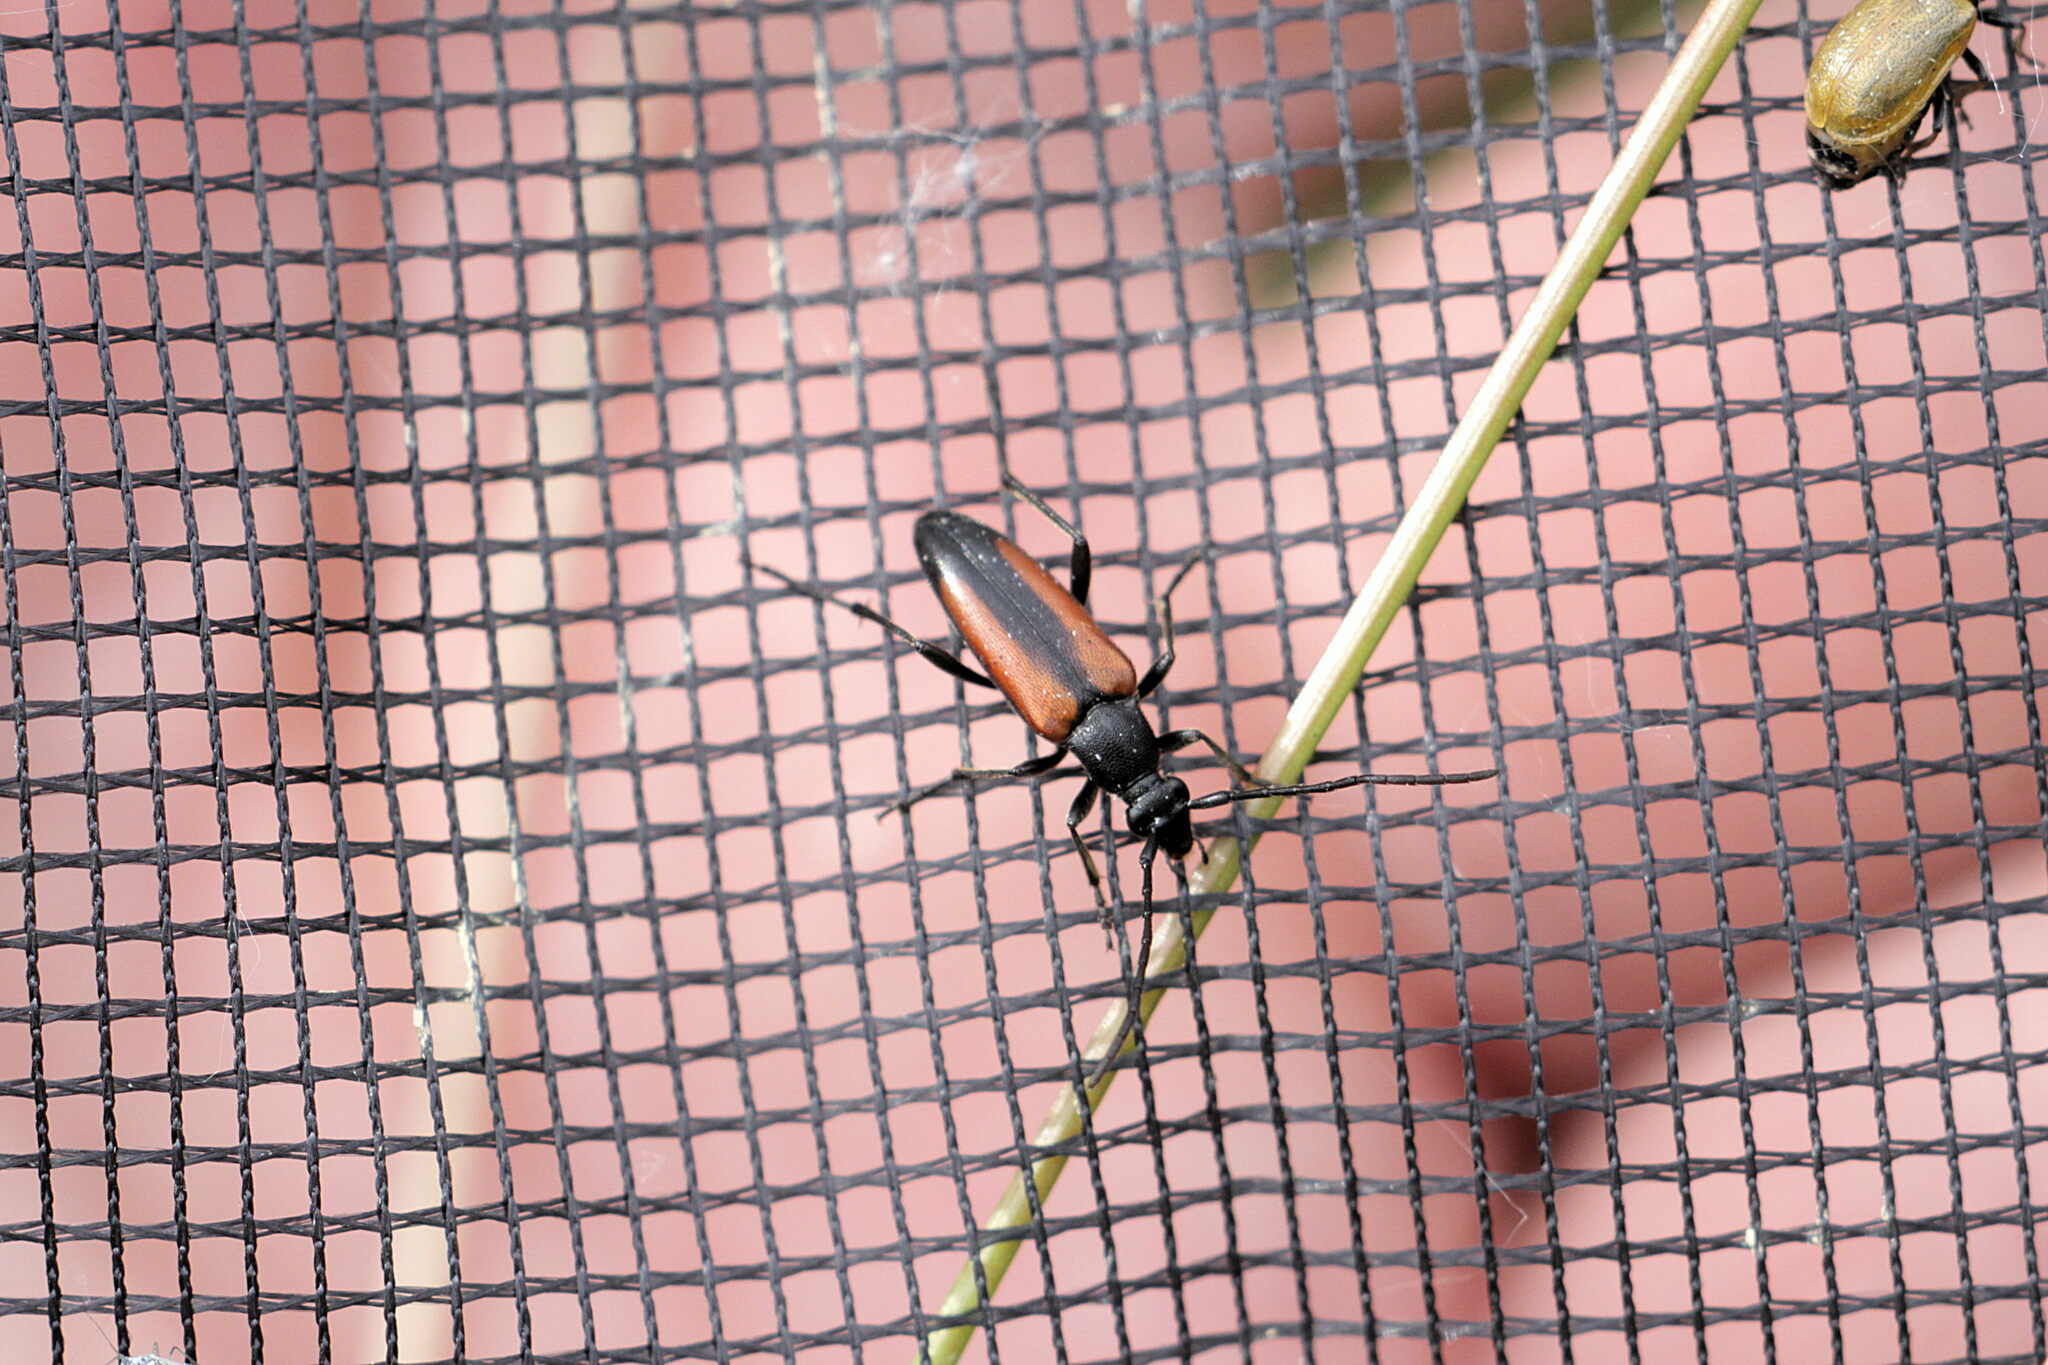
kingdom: Animalia
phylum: Arthropoda
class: Insecta
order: Coleoptera
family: Cerambycidae
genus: Stenurella
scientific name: Stenurella melanura
